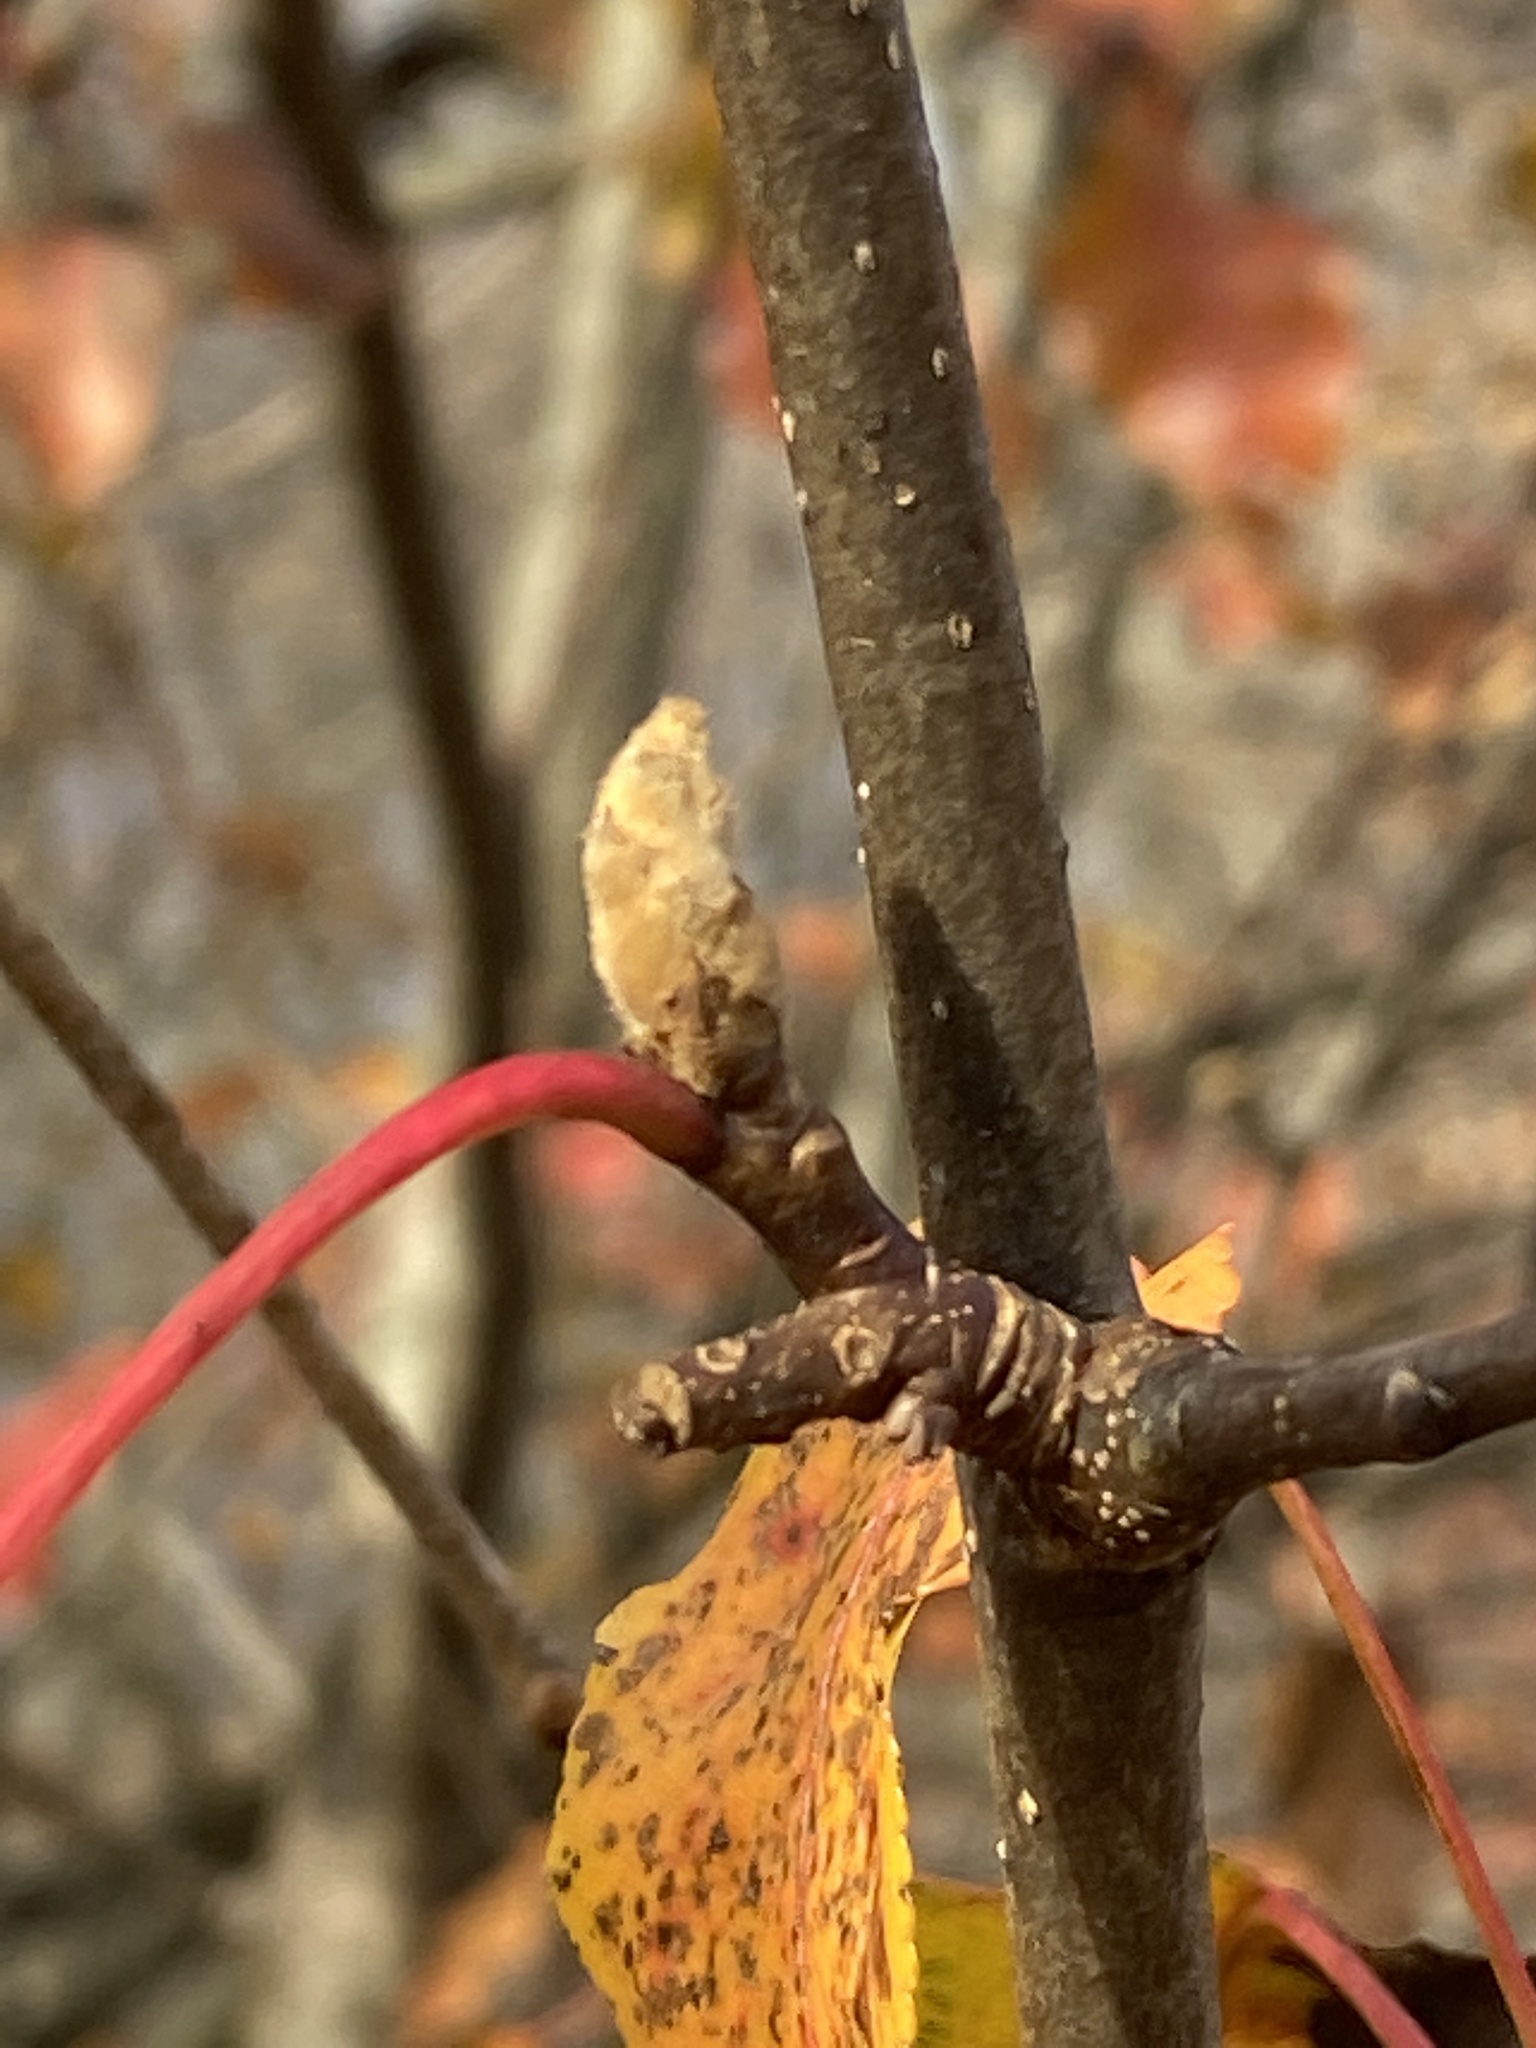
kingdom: Plantae
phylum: Tracheophyta
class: Magnoliopsida
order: Rosales
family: Rosaceae
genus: Pyrus
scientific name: Pyrus calleryana
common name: Callery pear
